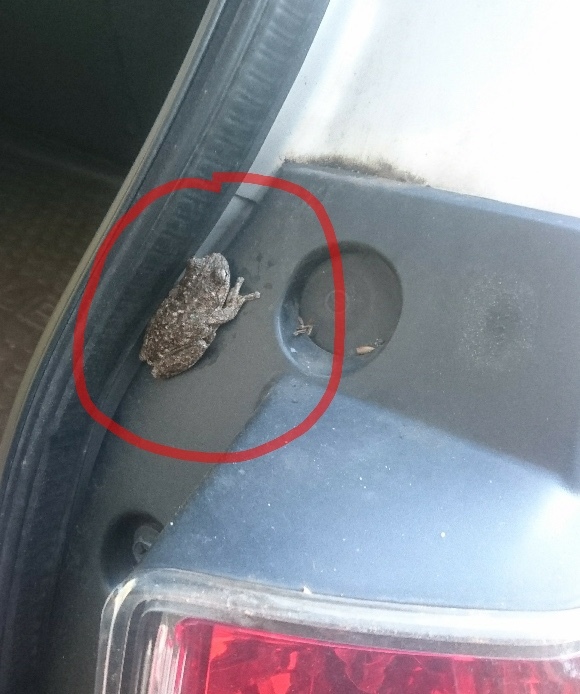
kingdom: Animalia
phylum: Chordata
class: Amphibia
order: Anura
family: Pelodryadidae
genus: Litoria
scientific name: Litoria peronii
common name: Emerald spotted treefrog
